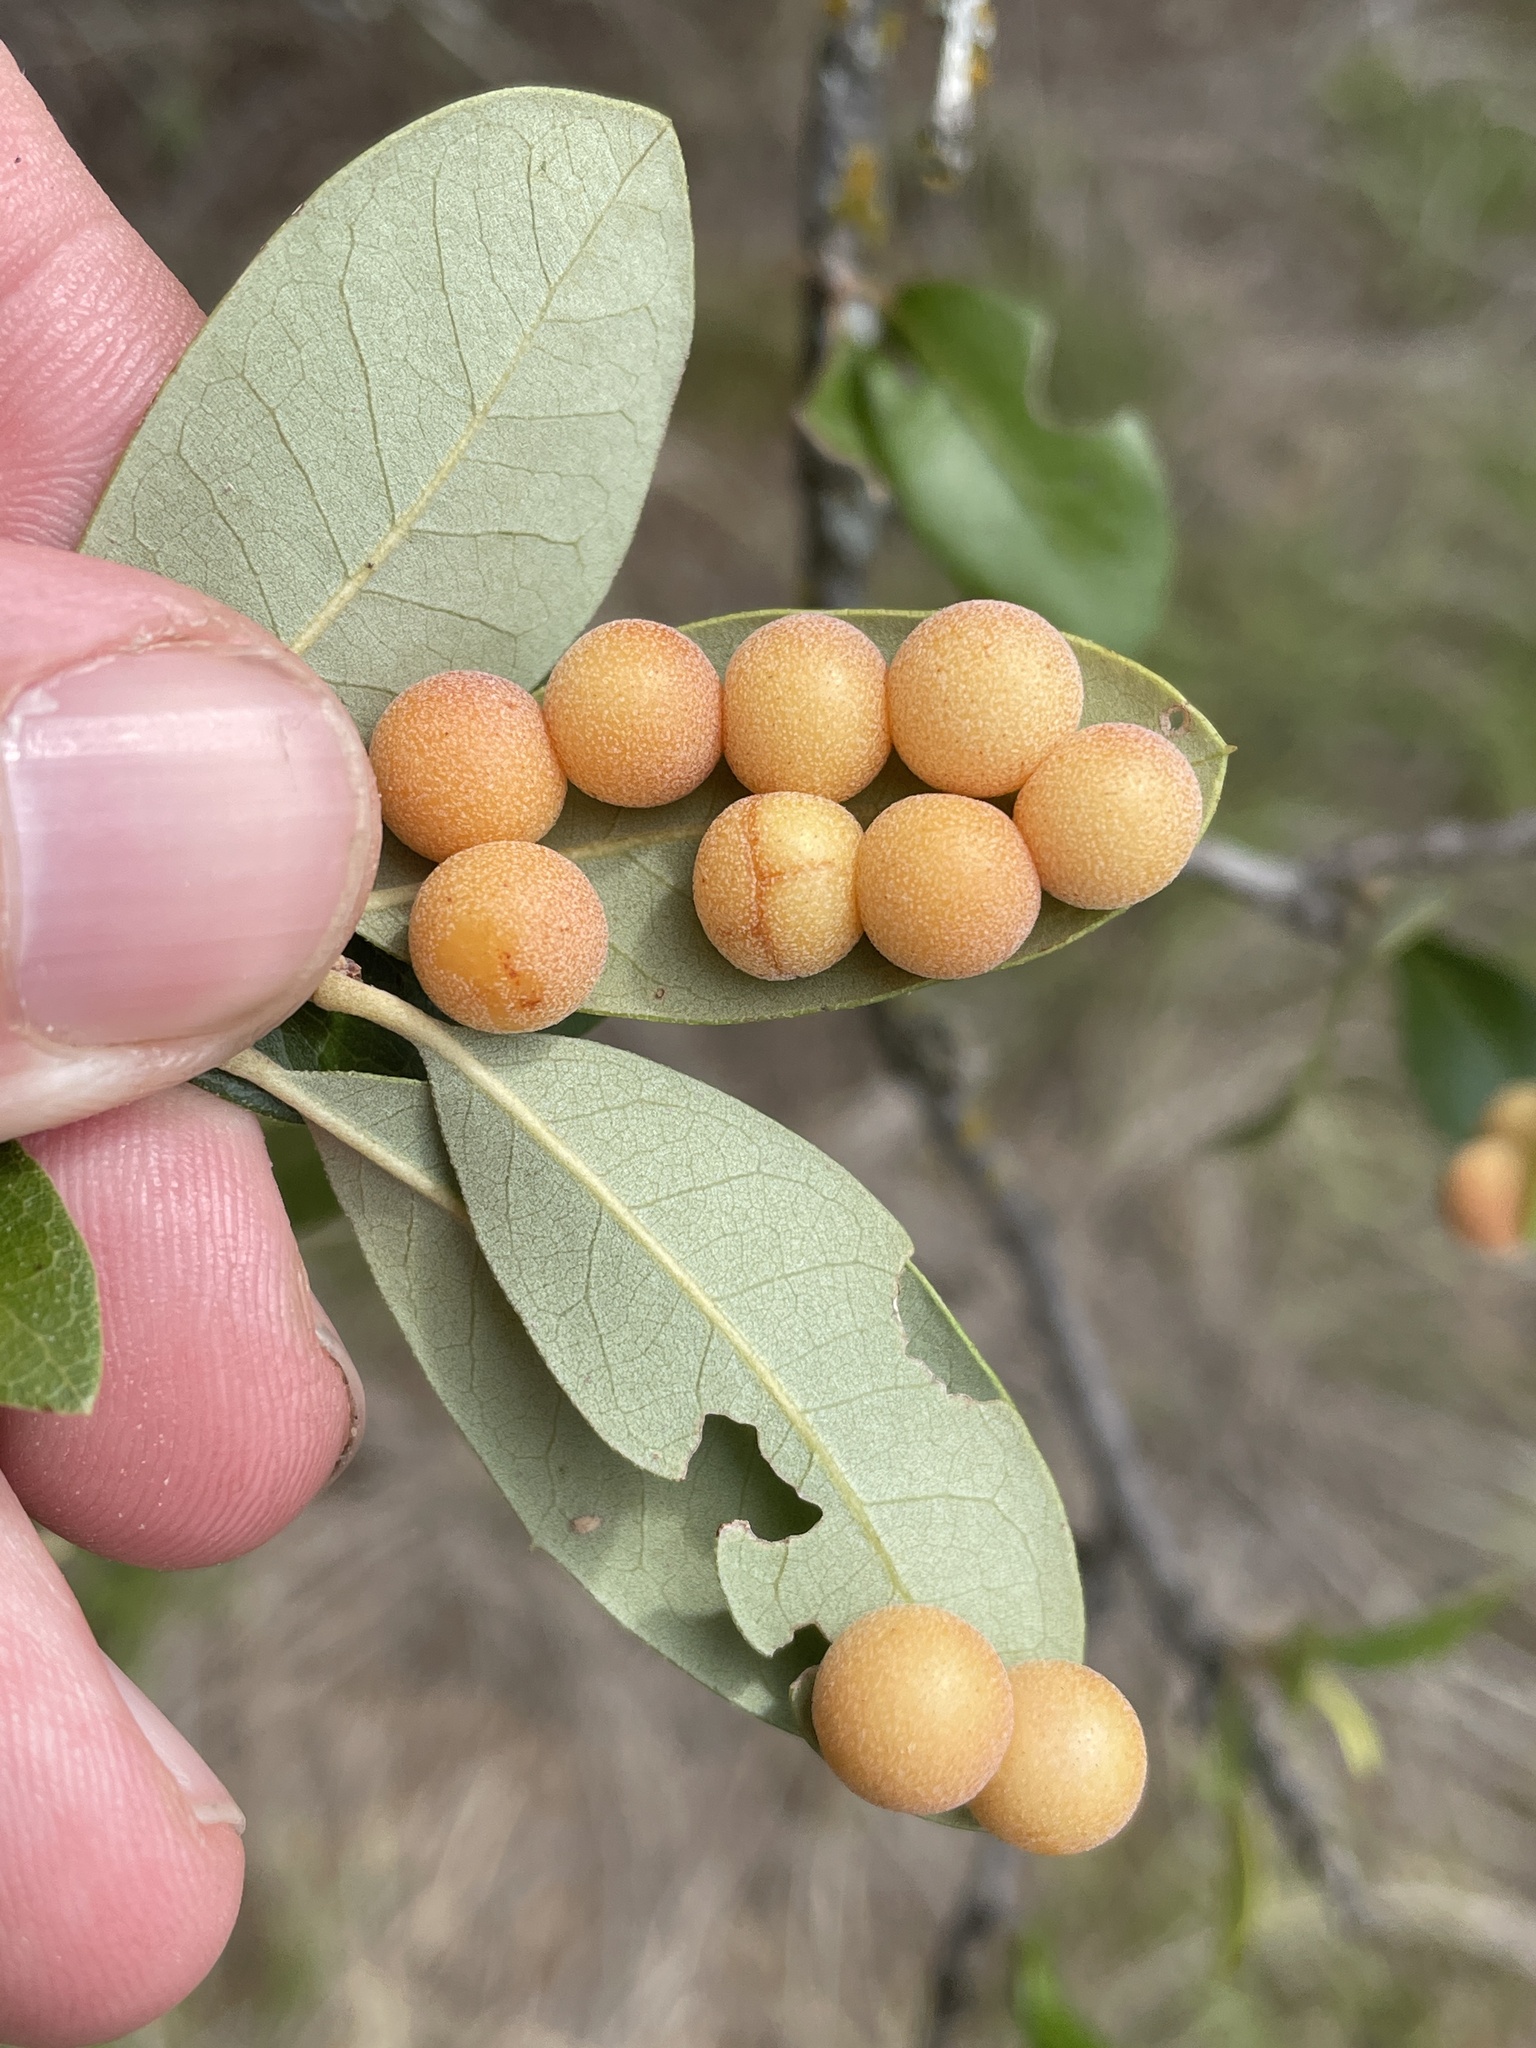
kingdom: Animalia
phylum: Arthropoda
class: Insecta
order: Hymenoptera
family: Cynipidae
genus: Belonocnema
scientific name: Belonocnema kinseyi
